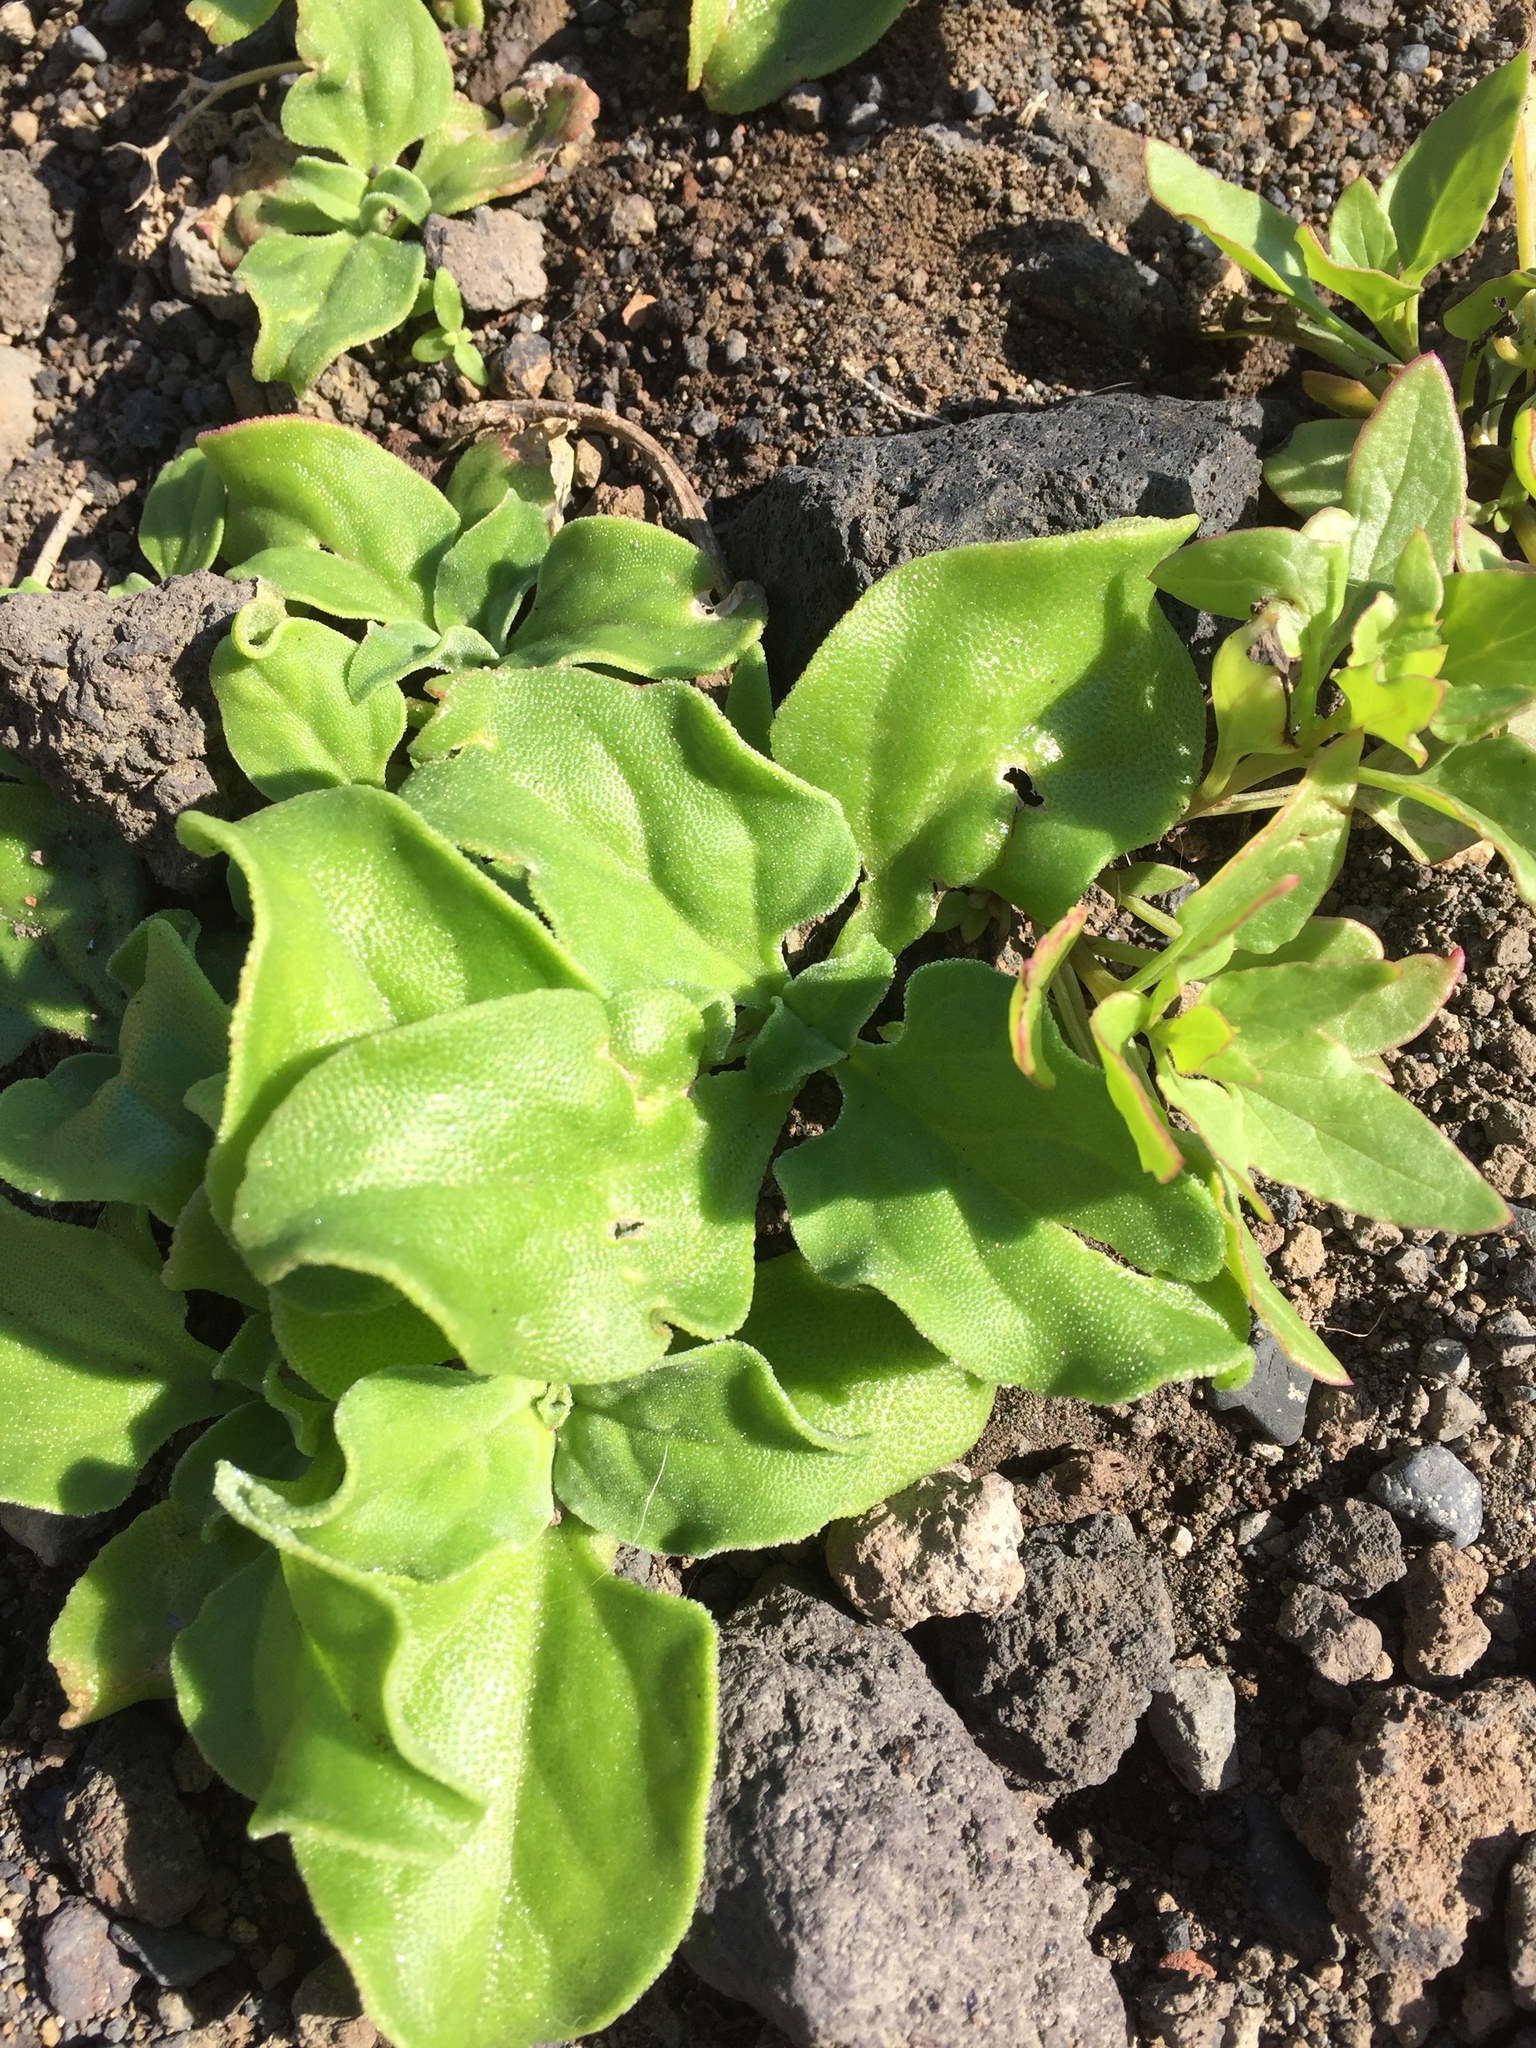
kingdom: Plantae
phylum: Tracheophyta
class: Magnoliopsida
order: Caryophyllales
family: Aizoaceae
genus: Mesembryanthemum
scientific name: Mesembryanthemum crystallinum
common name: Common iceplant
